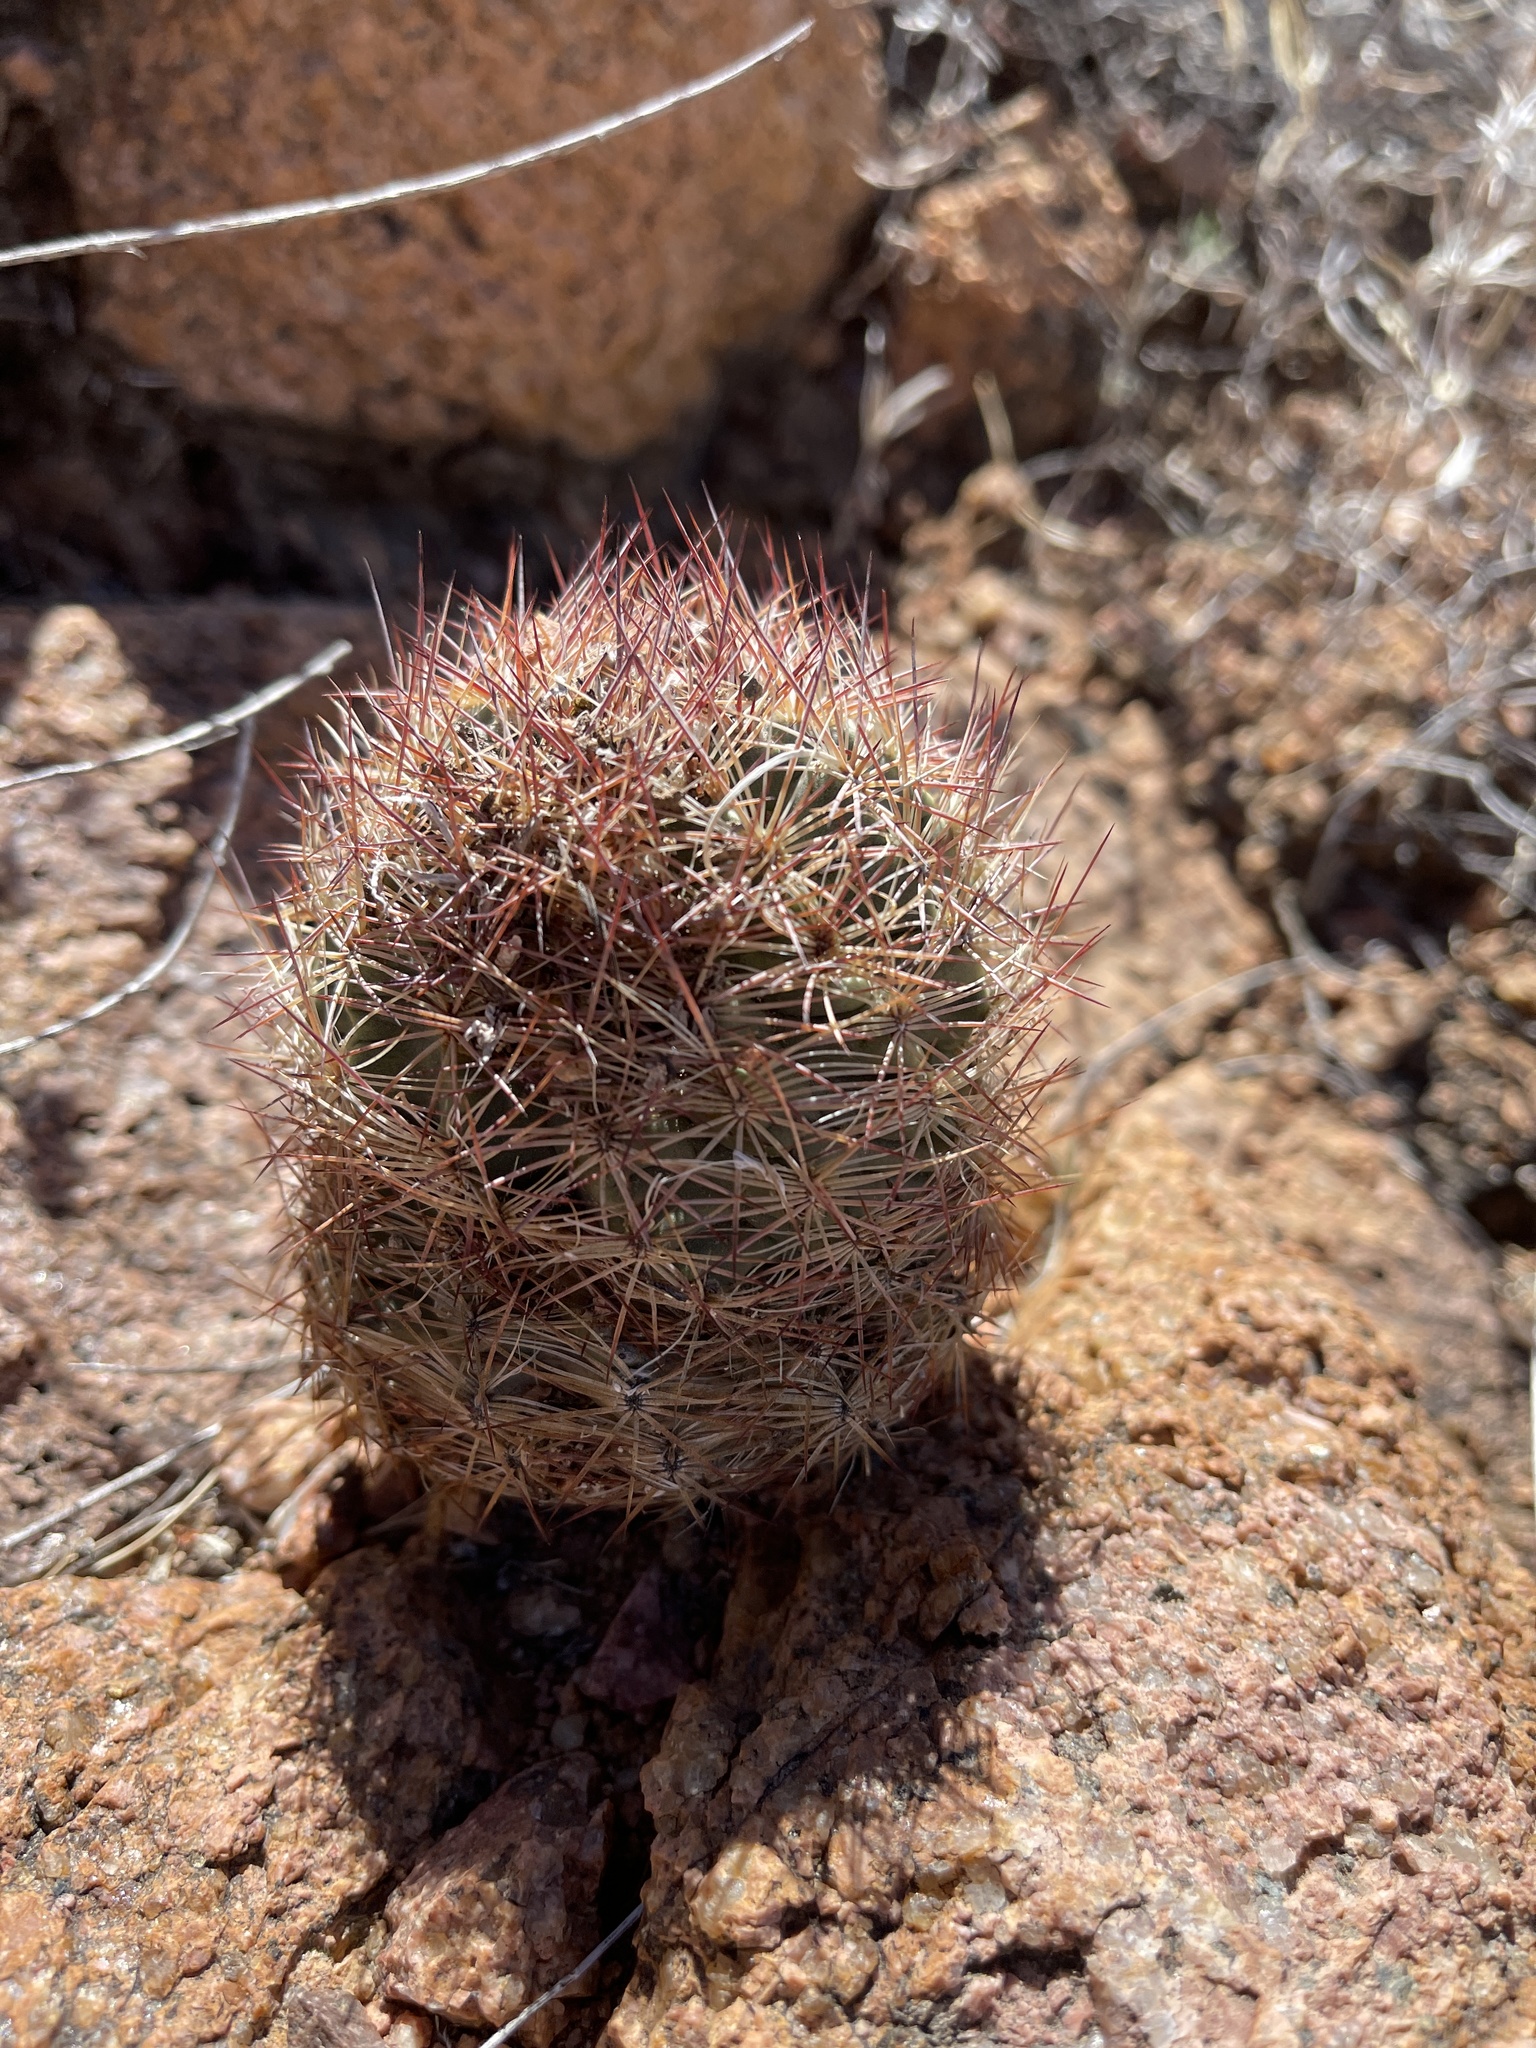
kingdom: Plantae
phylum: Tracheophyta
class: Magnoliopsida
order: Caryophyllales
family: Cactaceae
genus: Sclerocactus
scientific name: Sclerocactus intertextus
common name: White fish-hook cactus
